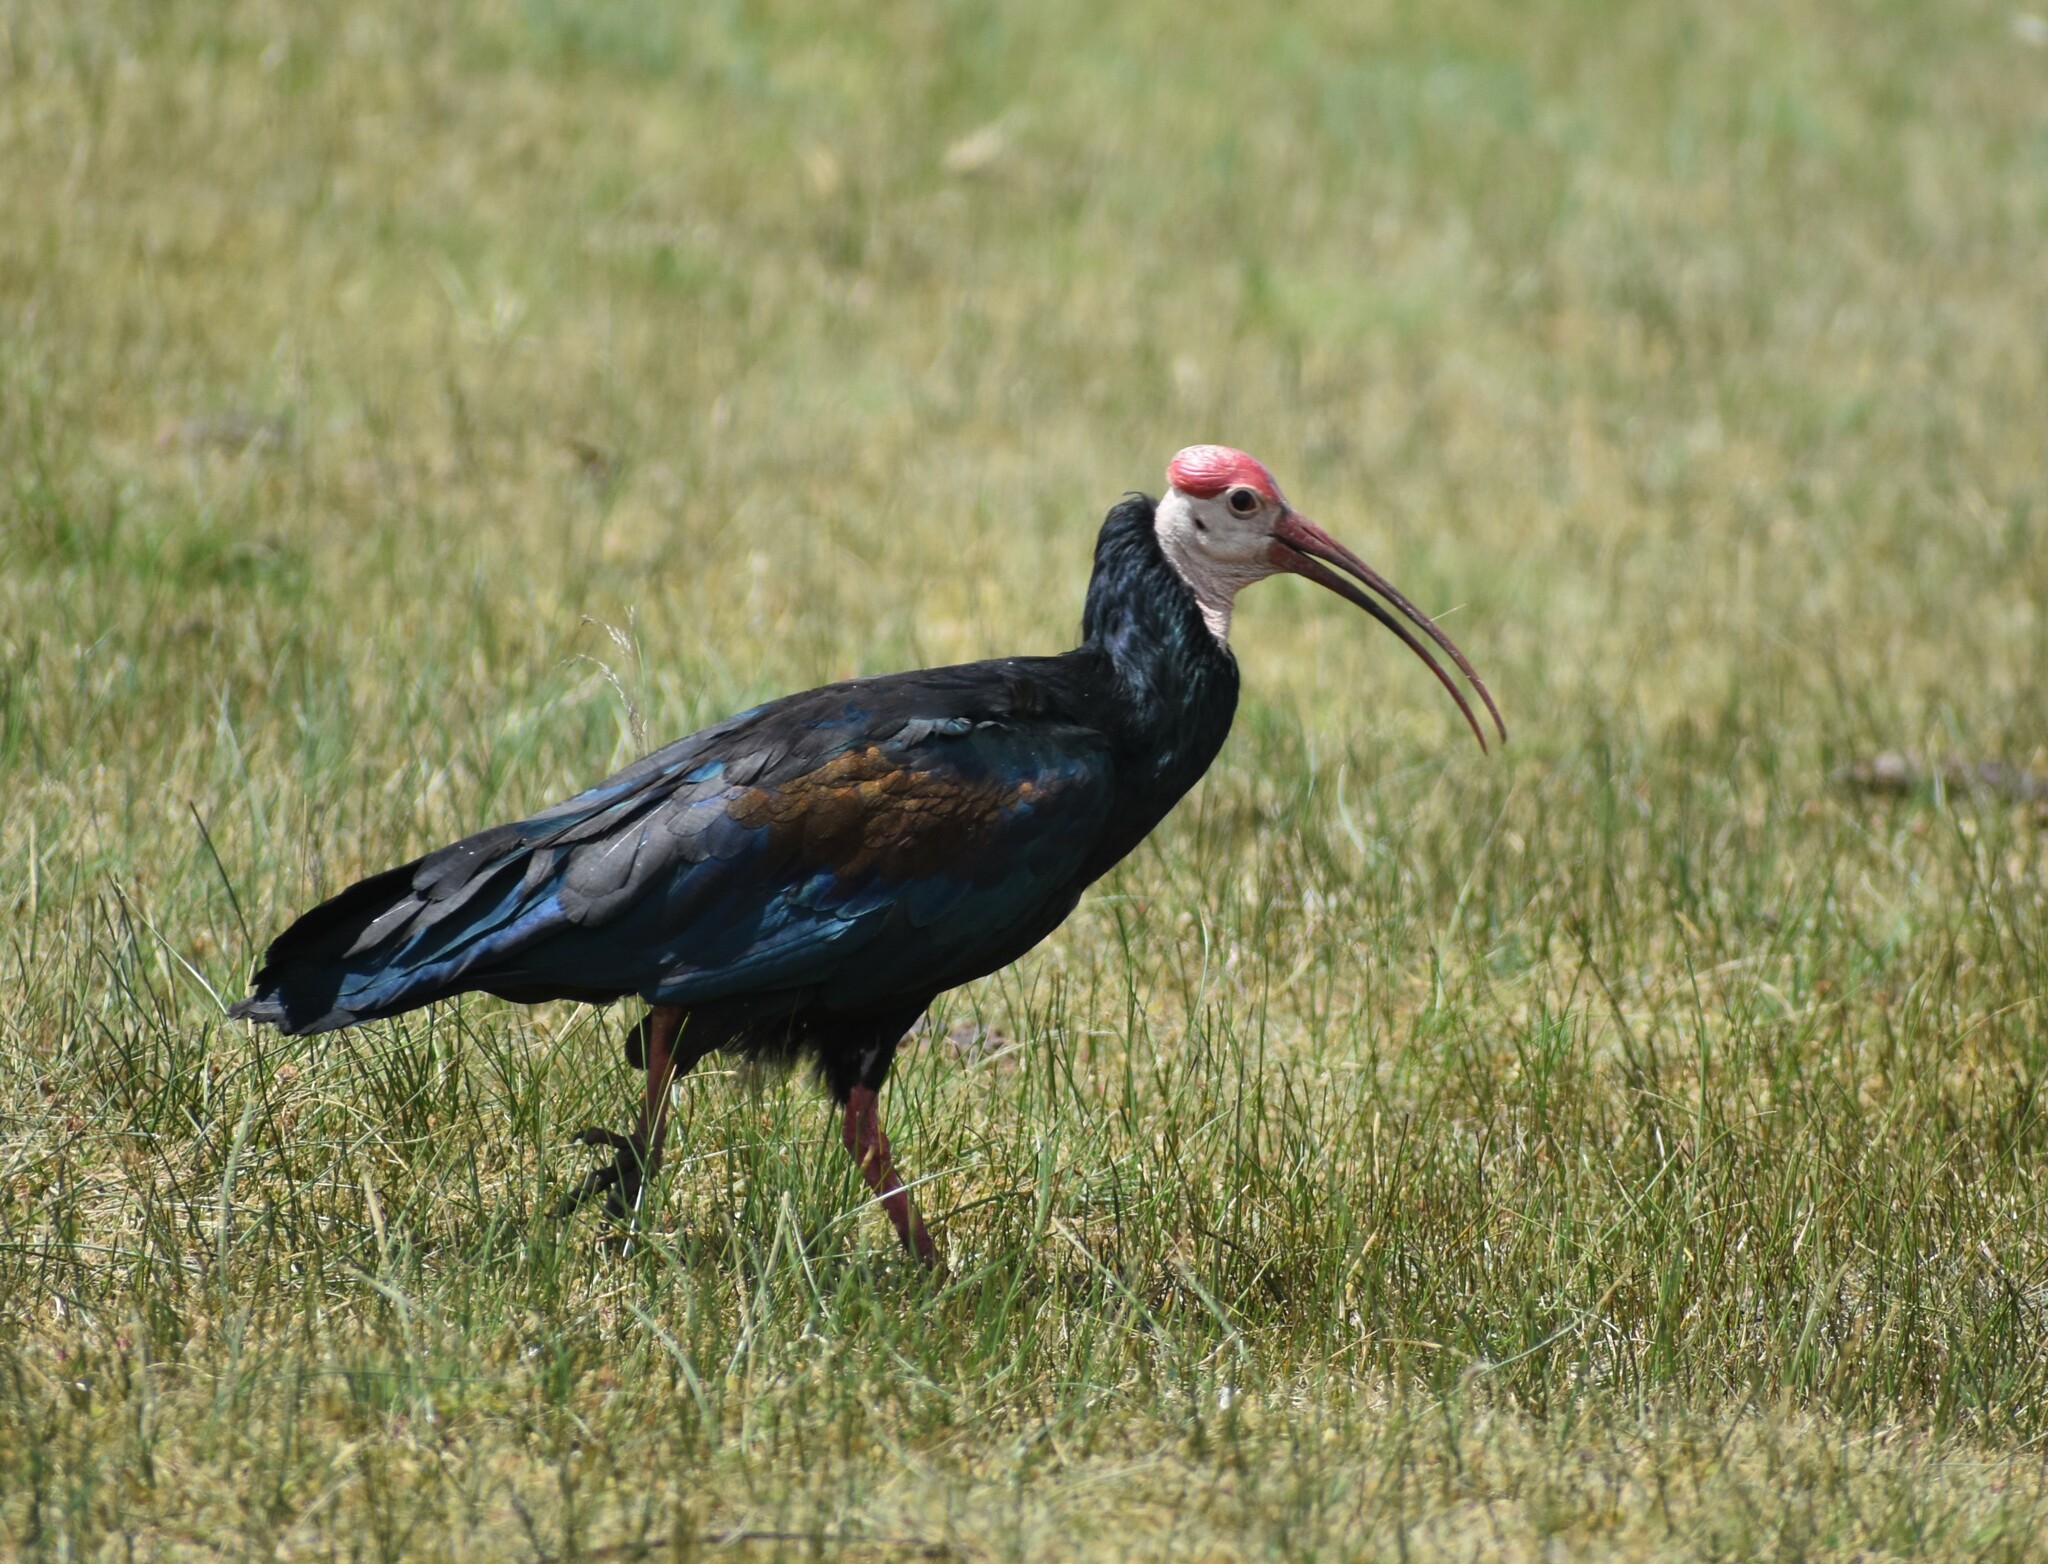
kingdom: Animalia
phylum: Chordata
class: Aves
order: Pelecaniformes
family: Threskiornithidae
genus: Geronticus
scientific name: Geronticus calvus
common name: Southern bald ibis
